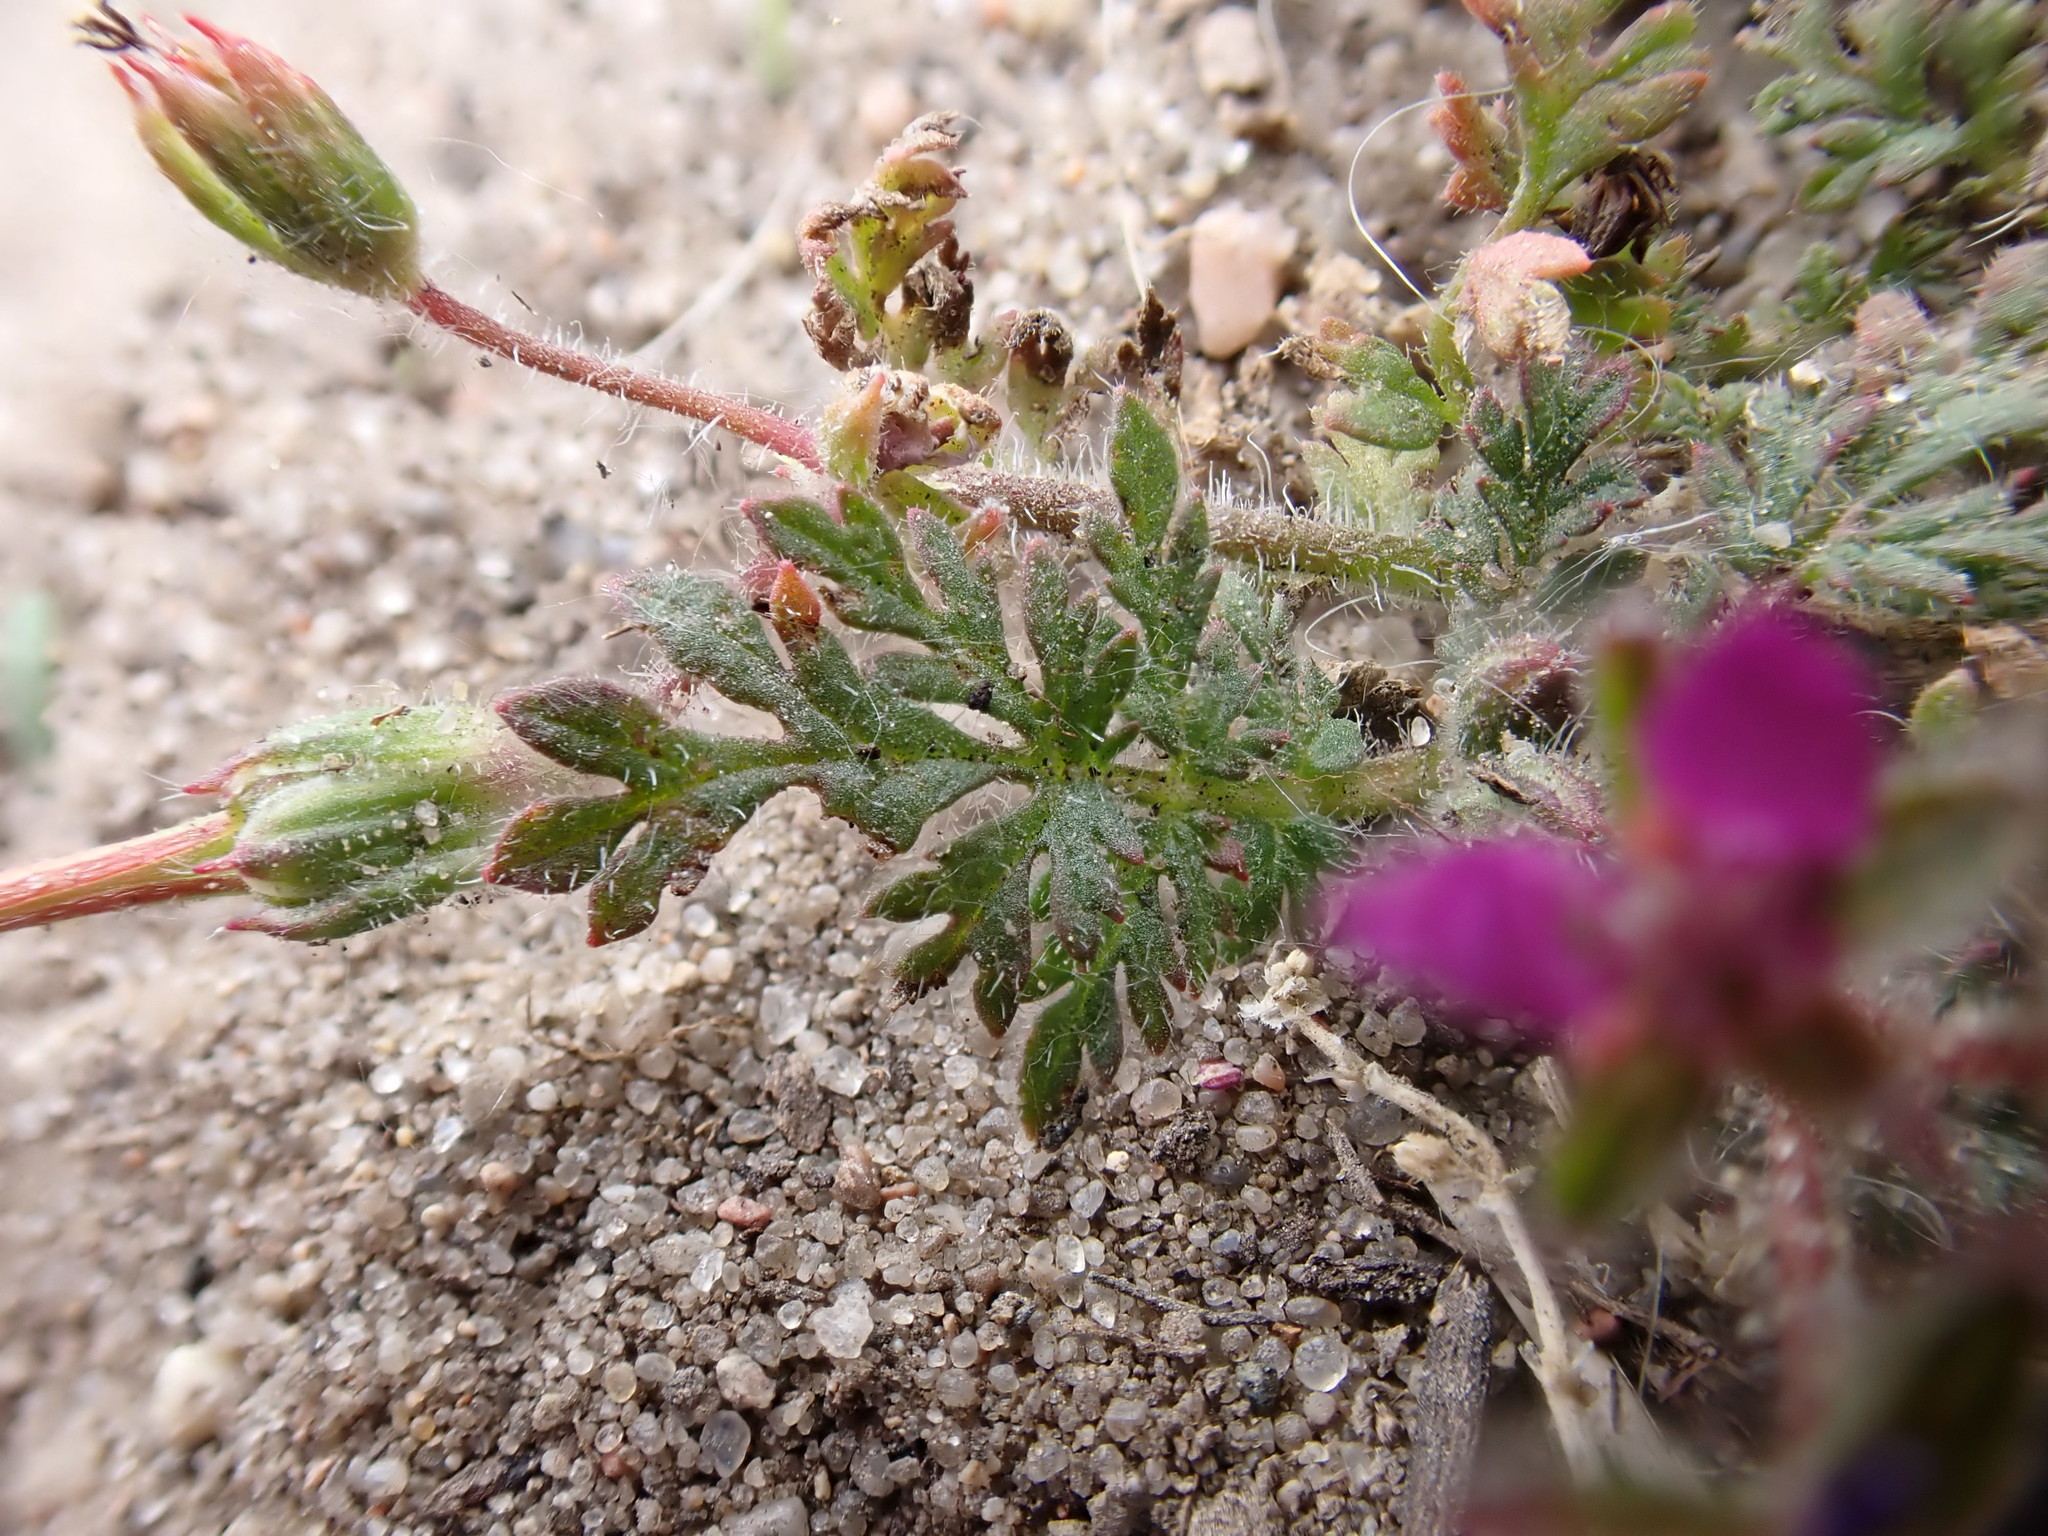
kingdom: Plantae
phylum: Tracheophyta
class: Magnoliopsida
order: Geraniales
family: Geraniaceae
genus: Erodium
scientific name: Erodium cicutarium
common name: Common stork's-bill
